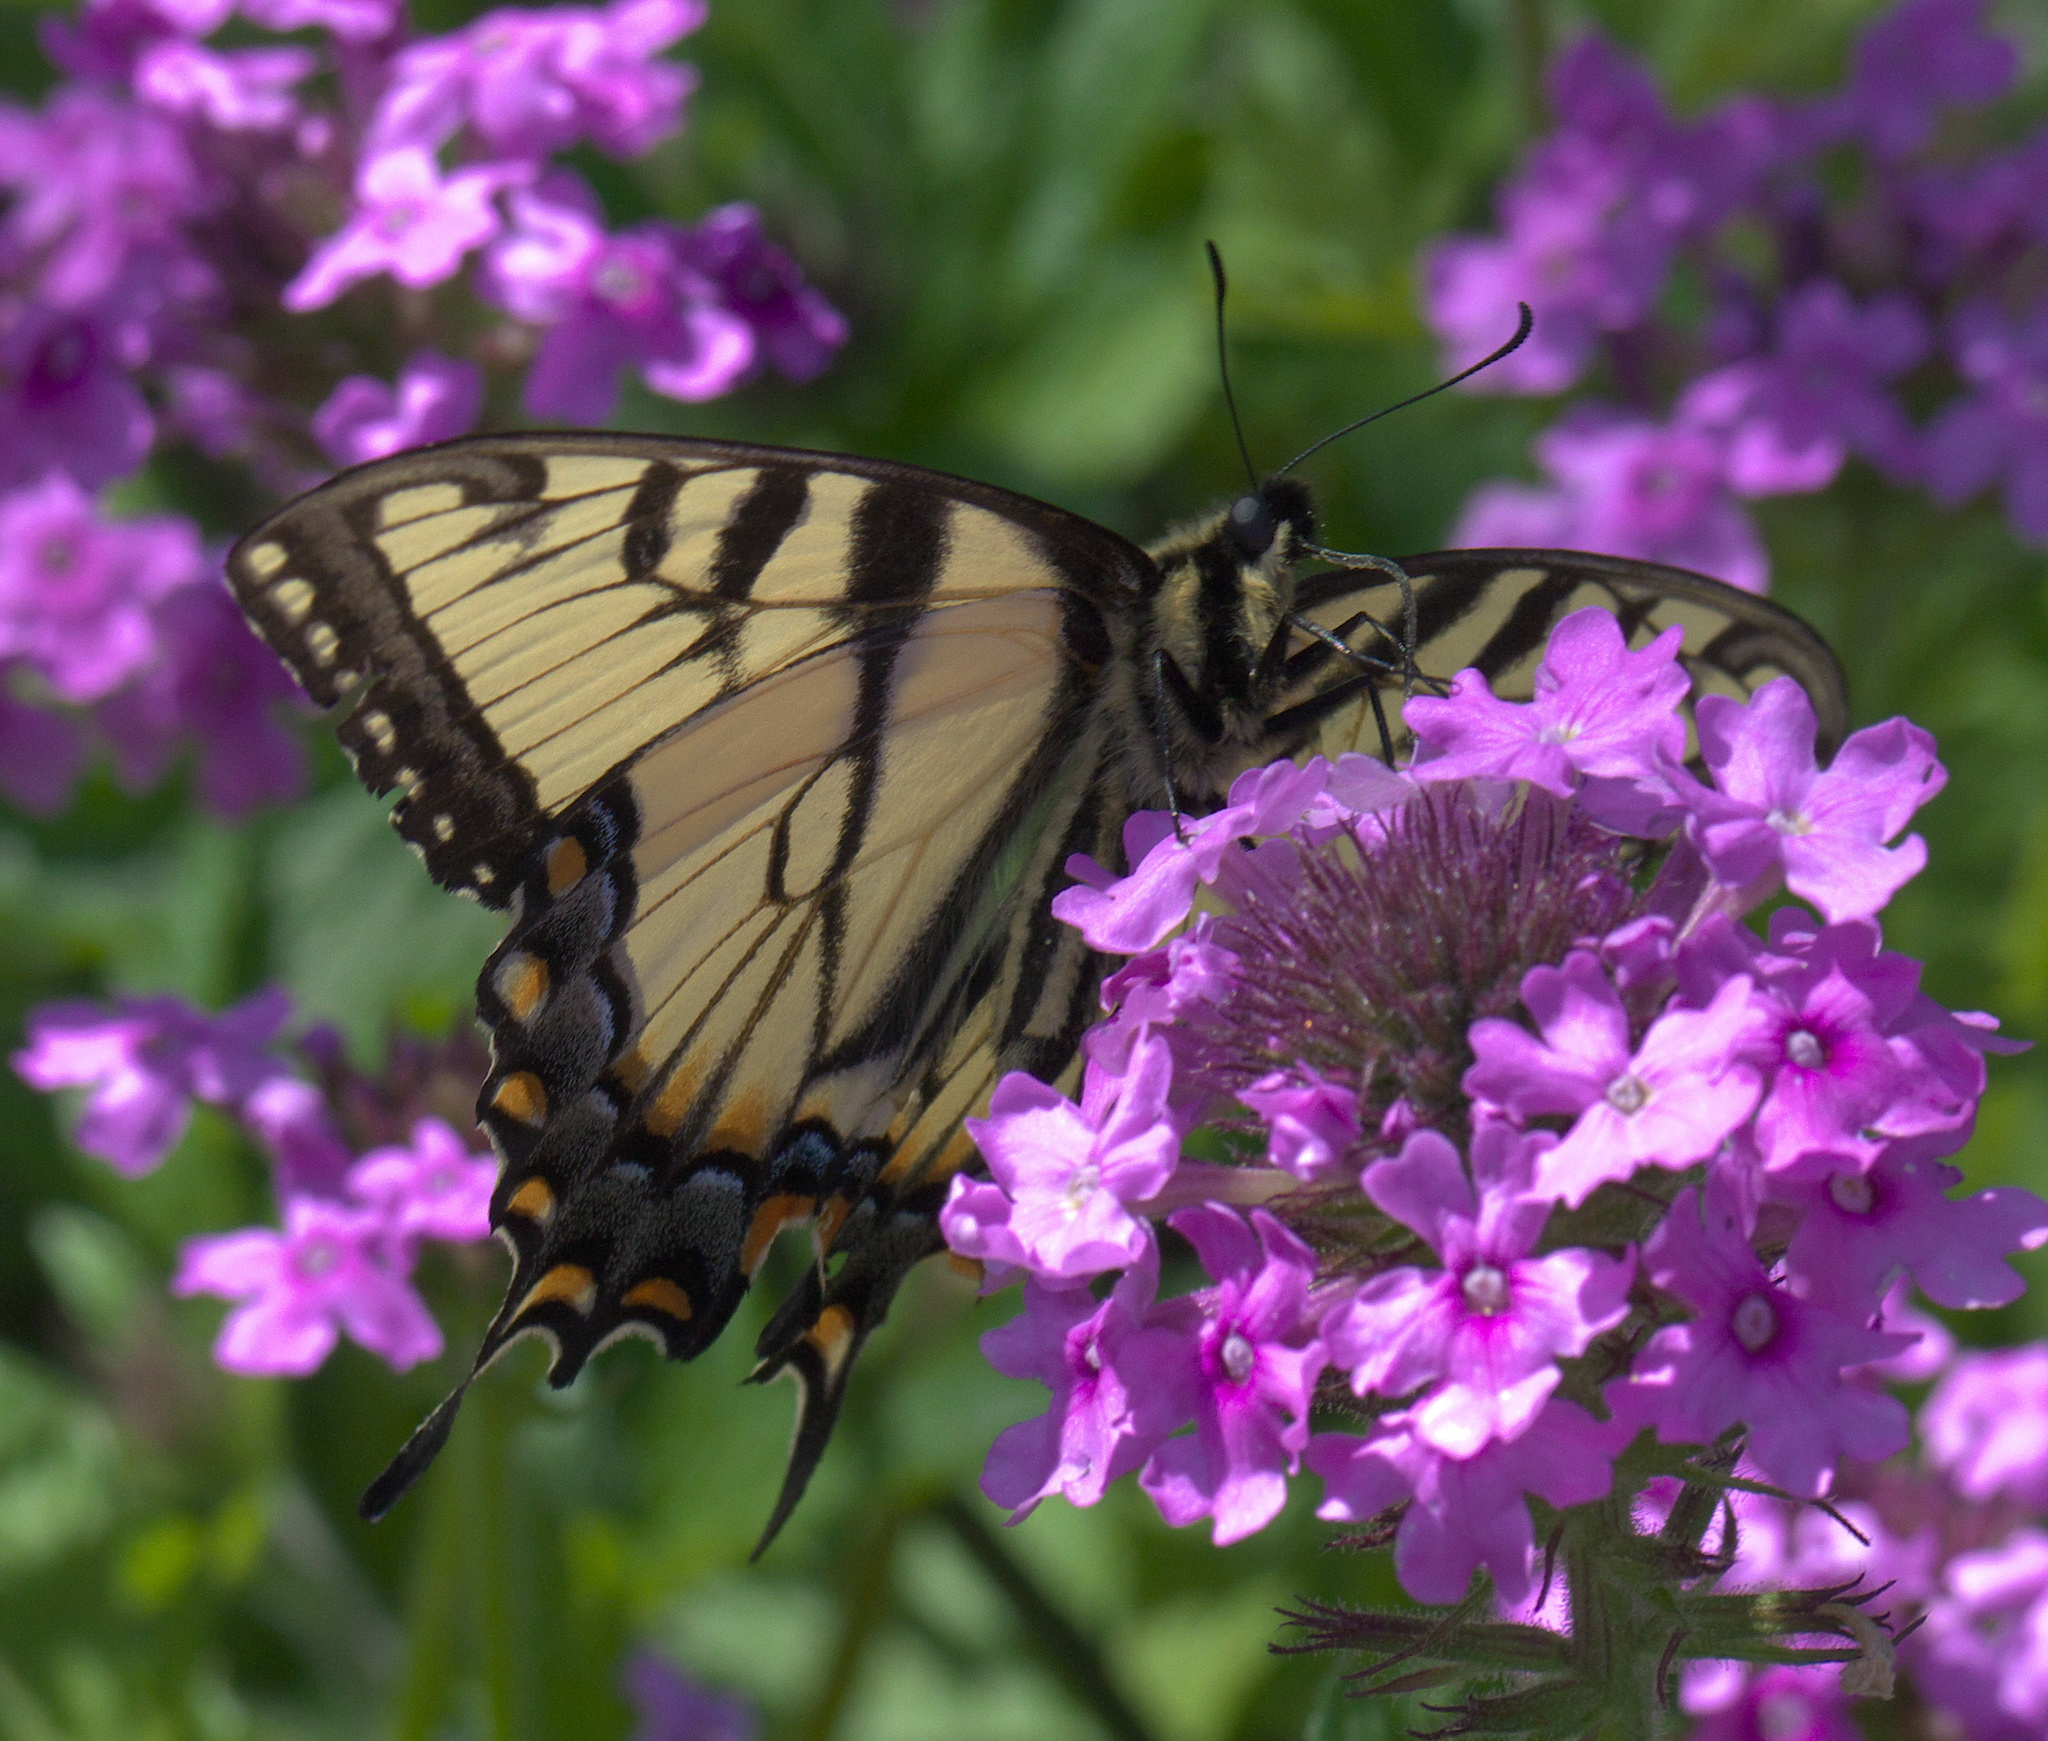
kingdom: Animalia
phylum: Arthropoda
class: Insecta
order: Lepidoptera
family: Papilionidae
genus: Papilio
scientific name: Papilio glaucus
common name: Tiger swallowtail
